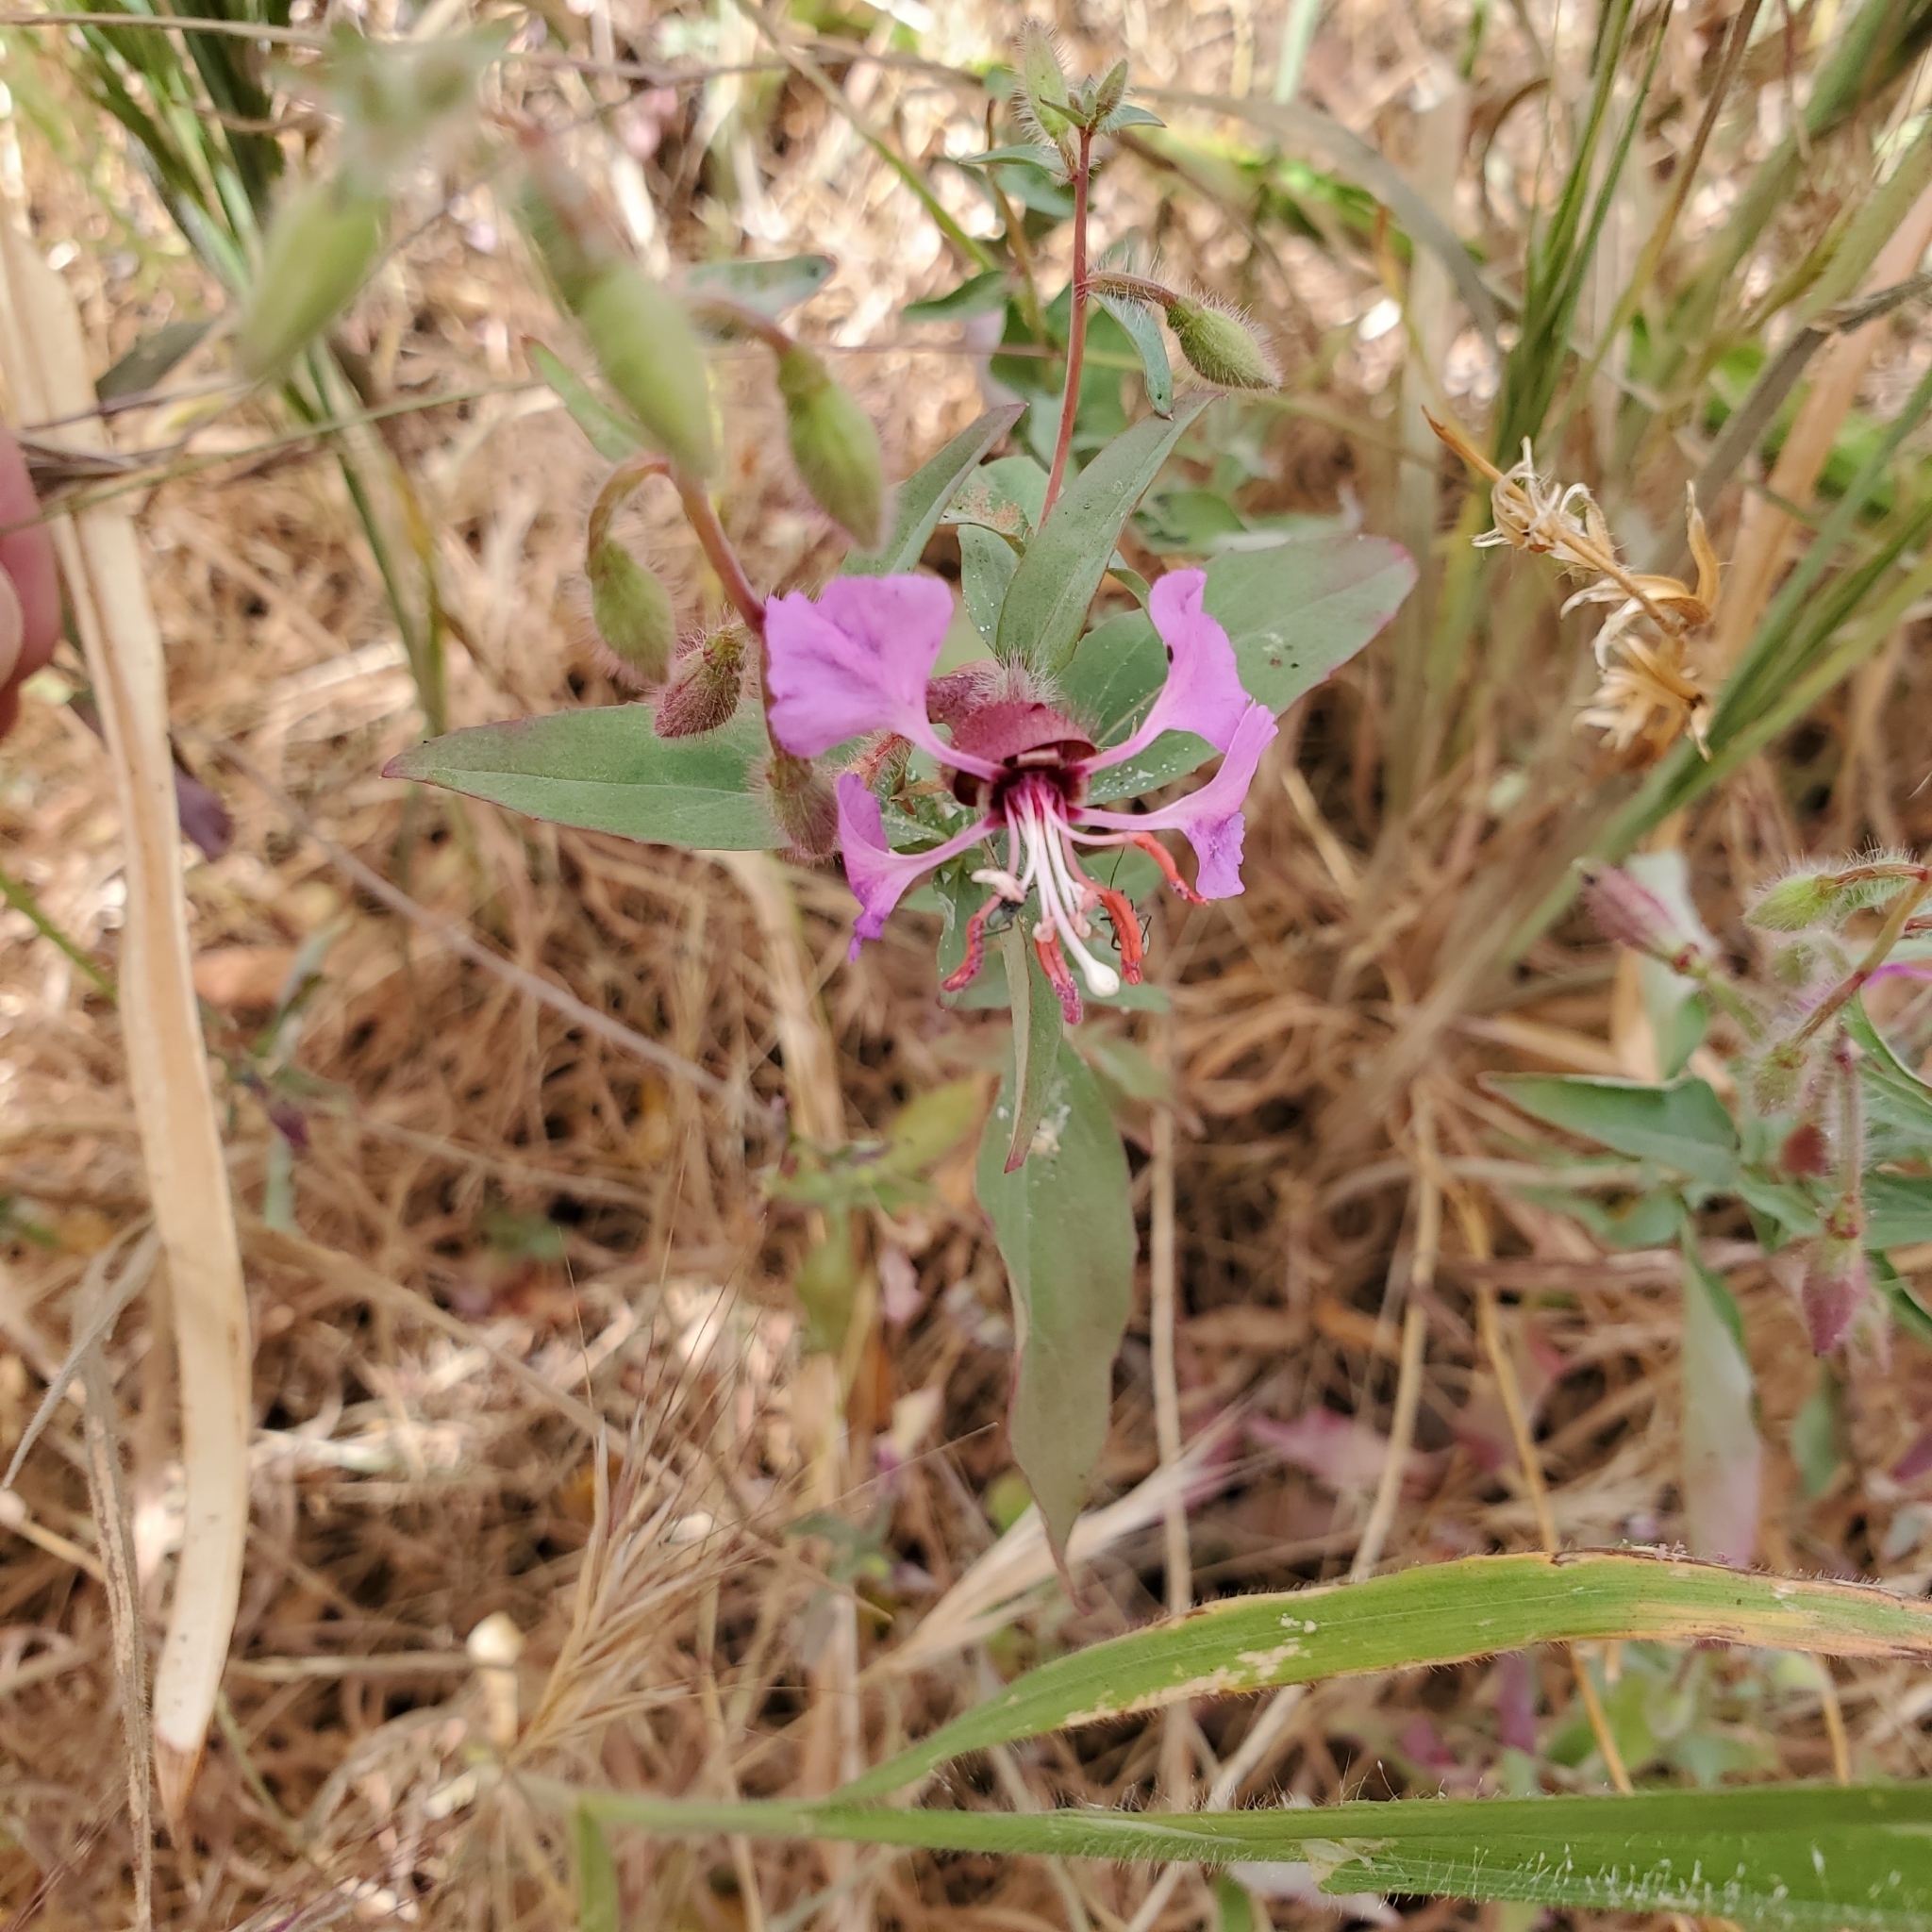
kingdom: Plantae
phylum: Tracheophyta
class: Magnoliopsida
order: Myrtales
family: Onagraceae
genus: Clarkia
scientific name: Clarkia unguiculata
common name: Clarkia
